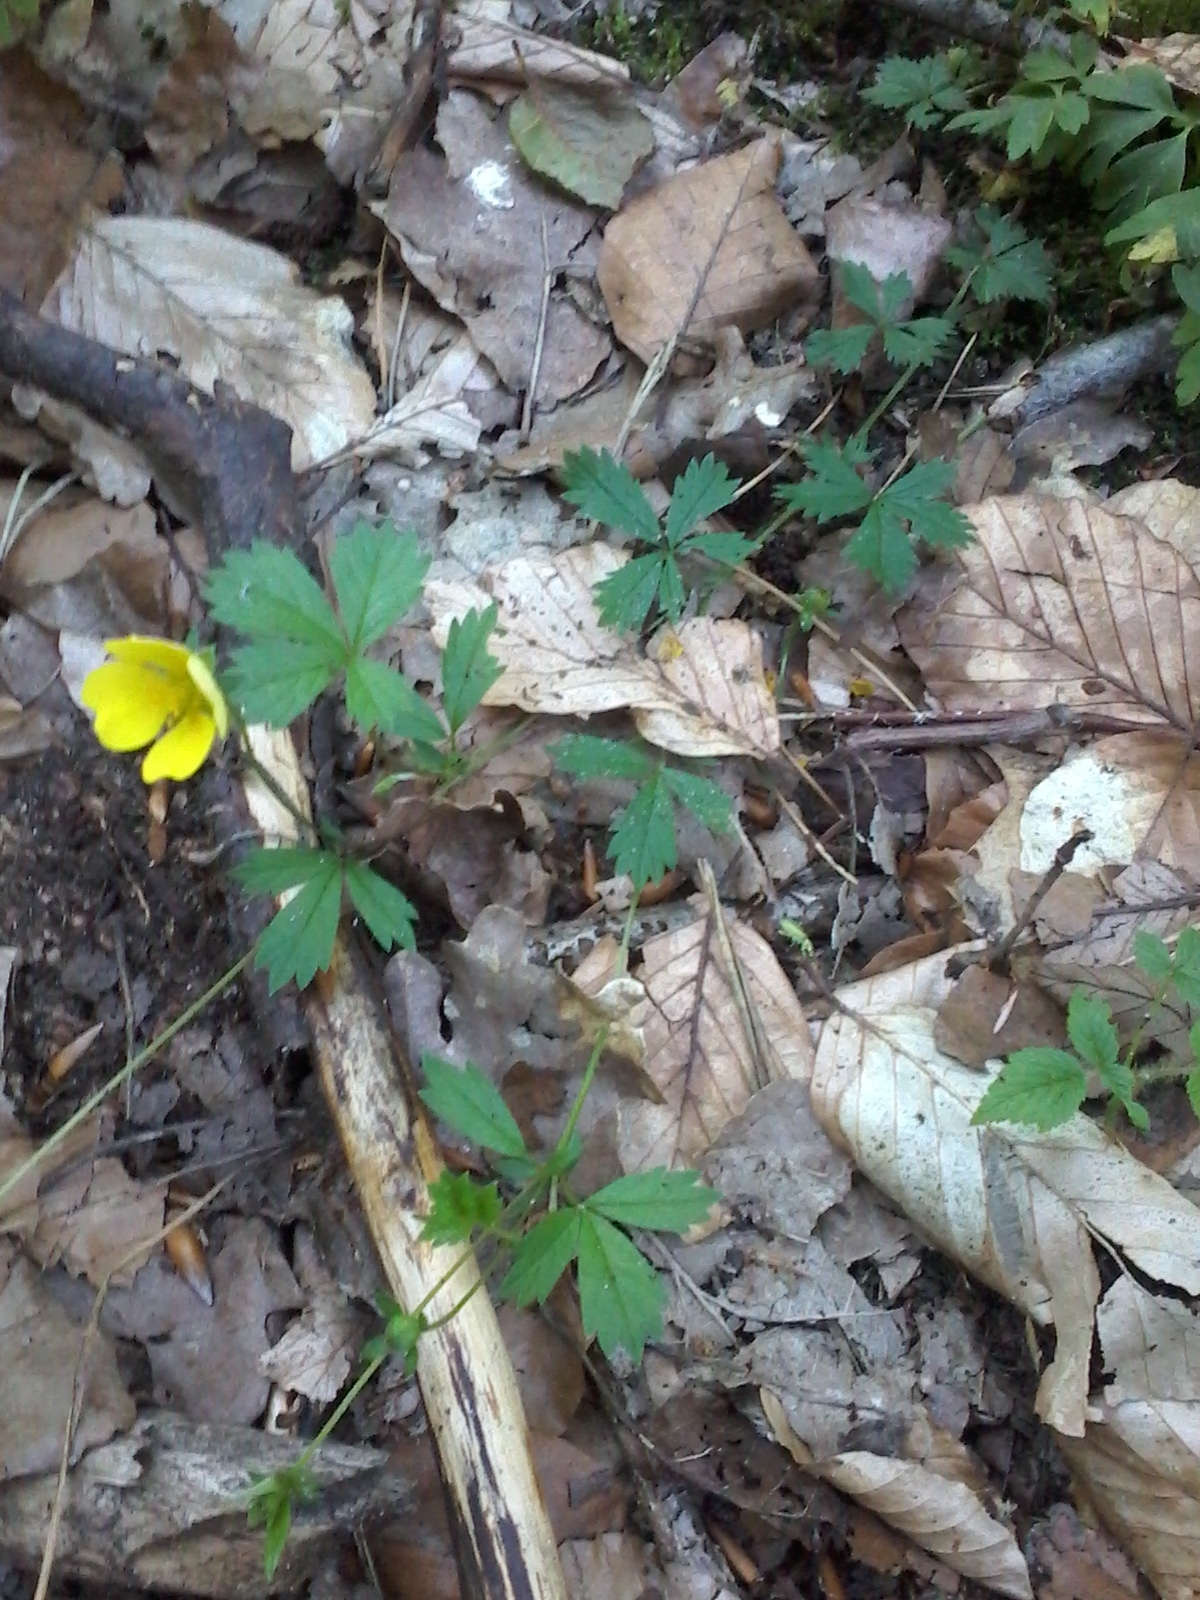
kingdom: Plantae
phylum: Tracheophyta
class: Magnoliopsida
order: Rosales
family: Rosaceae
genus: Potentilla
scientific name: Potentilla reptans
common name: Creeping cinquefoil
